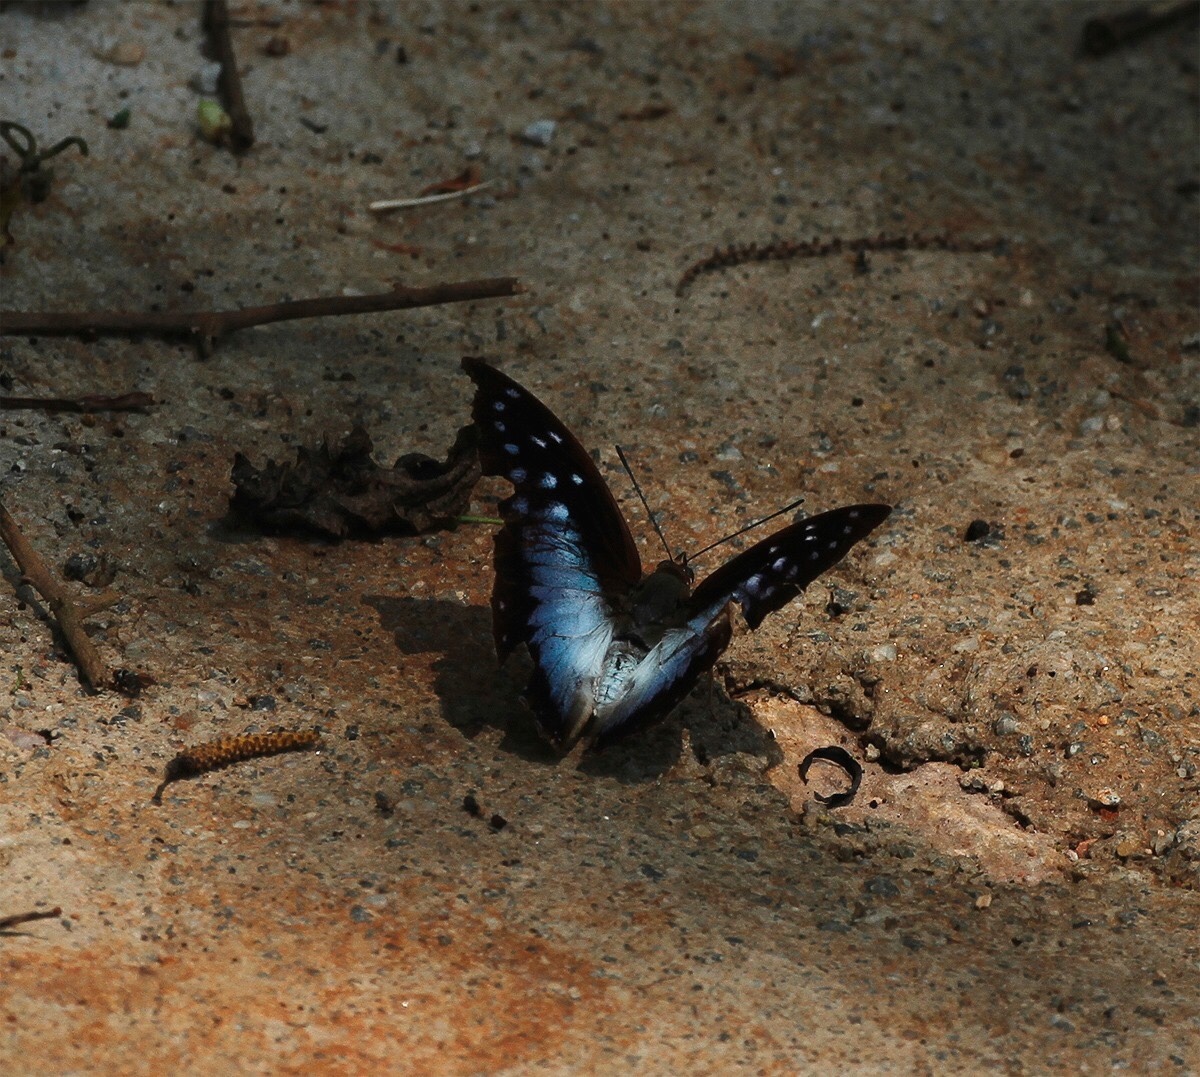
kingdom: Animalia
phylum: Arthropoda
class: Insecta
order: Lepidoptera
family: Nymphalidae
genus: Charaxes
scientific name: Charaxes pythodoris
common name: Powder-blue charaxes
